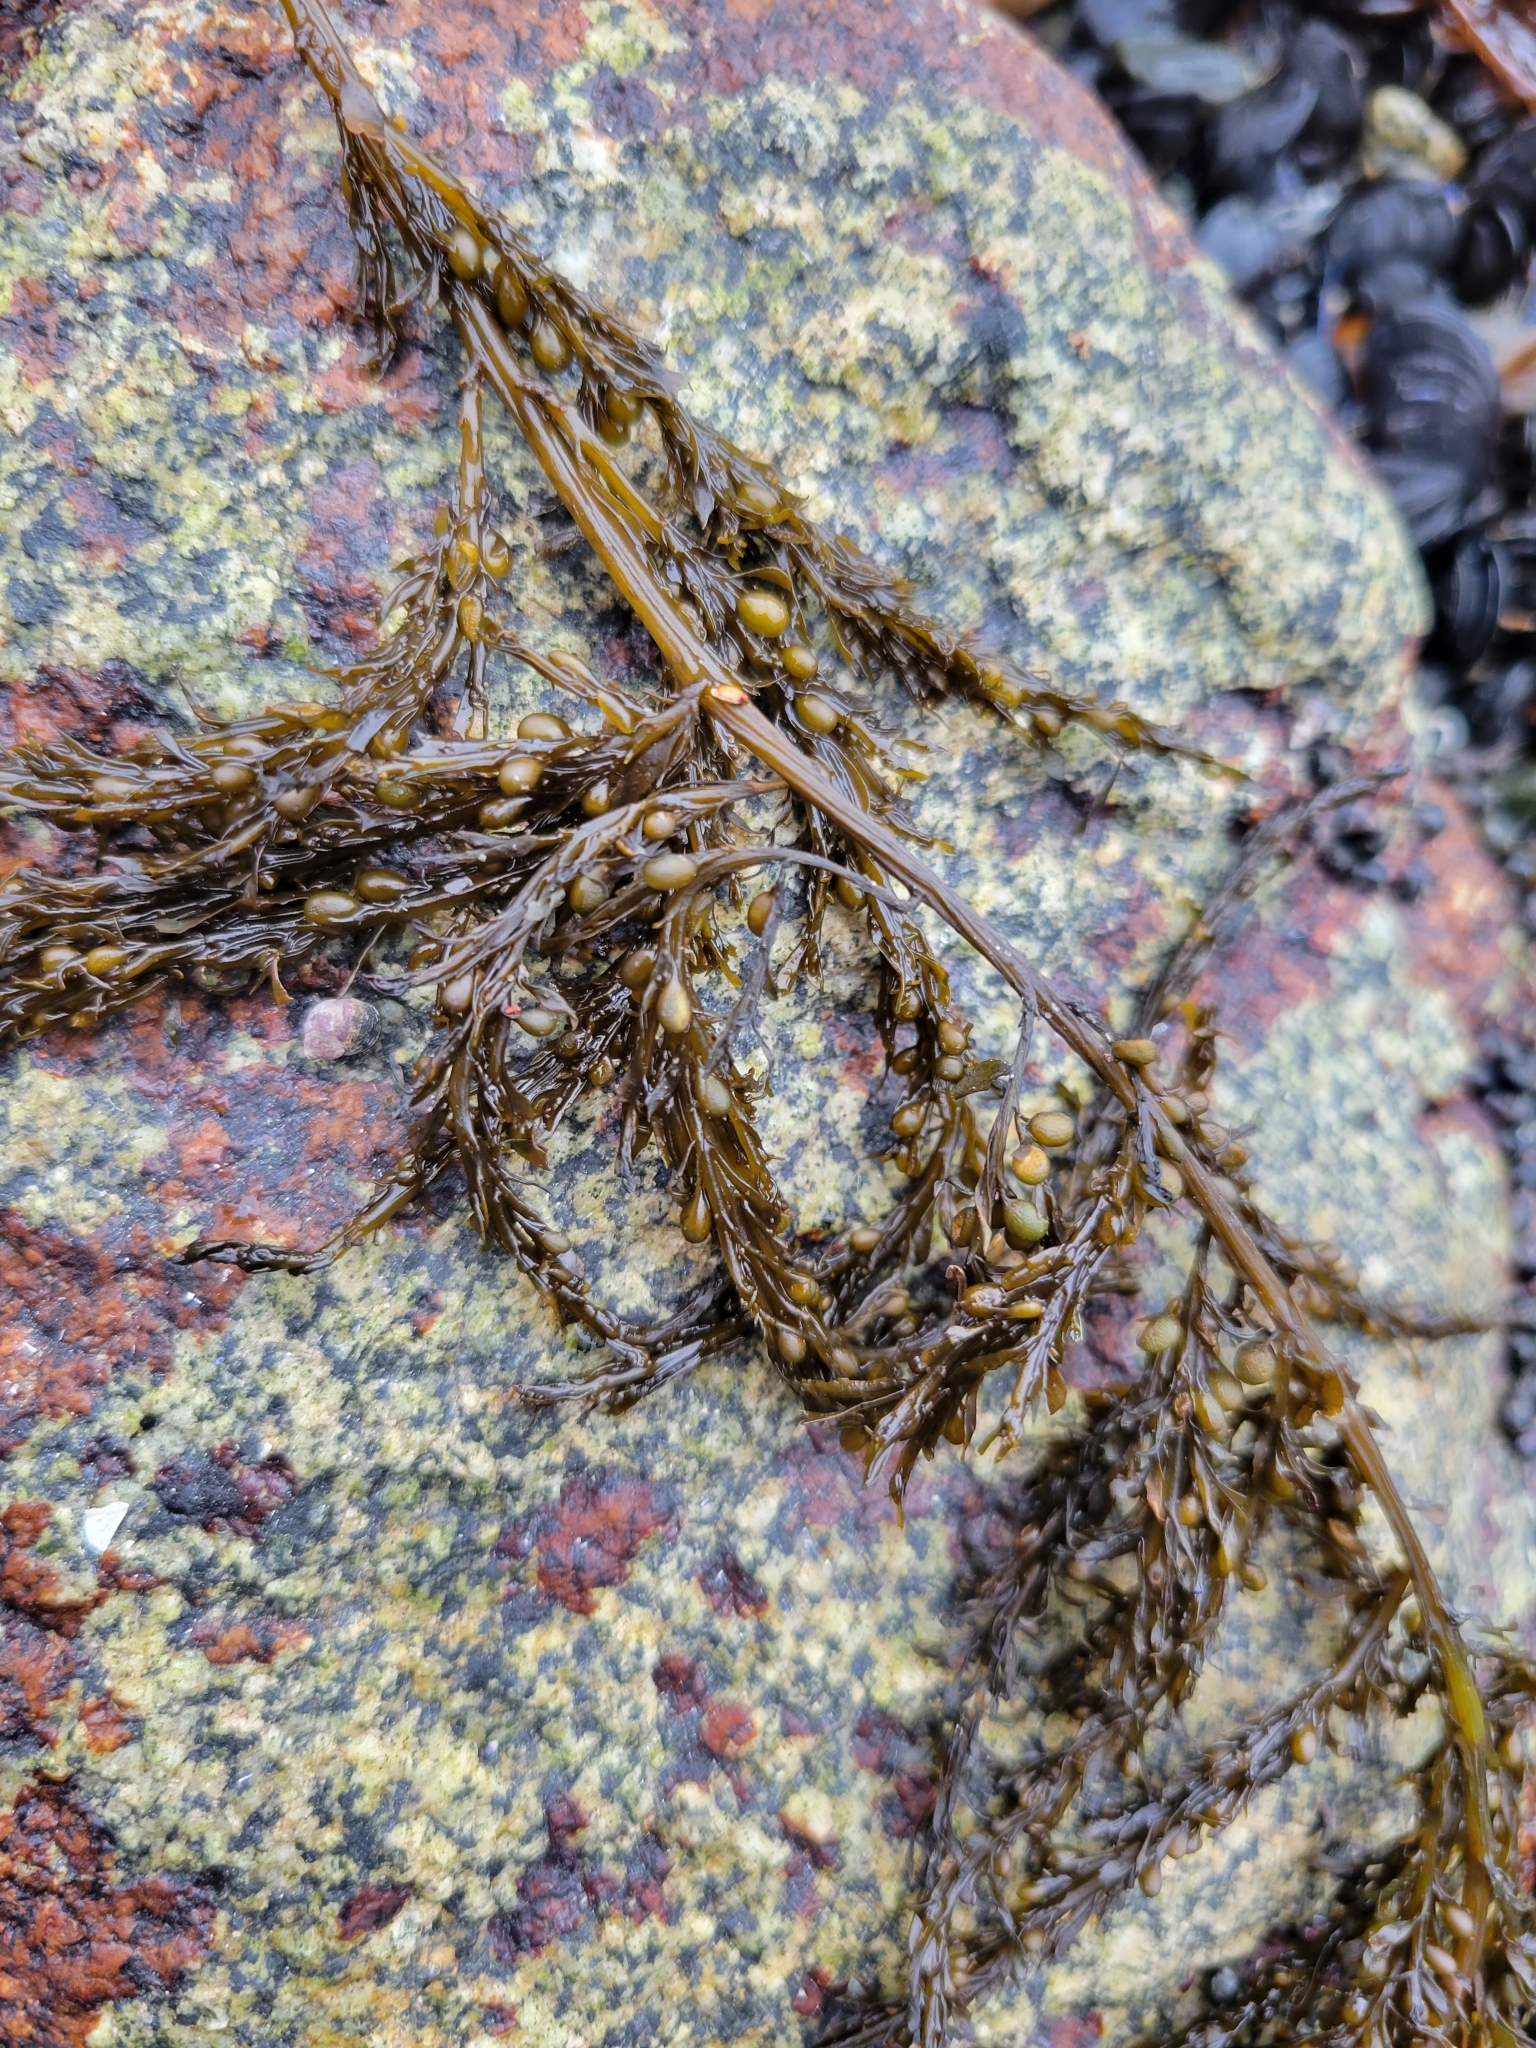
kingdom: Chromista
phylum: Ochrophyta
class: Phaeophyceae
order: Fucales
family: Sargassaceae
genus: Sargassum
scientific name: Sargassum muticum
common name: Japweed
